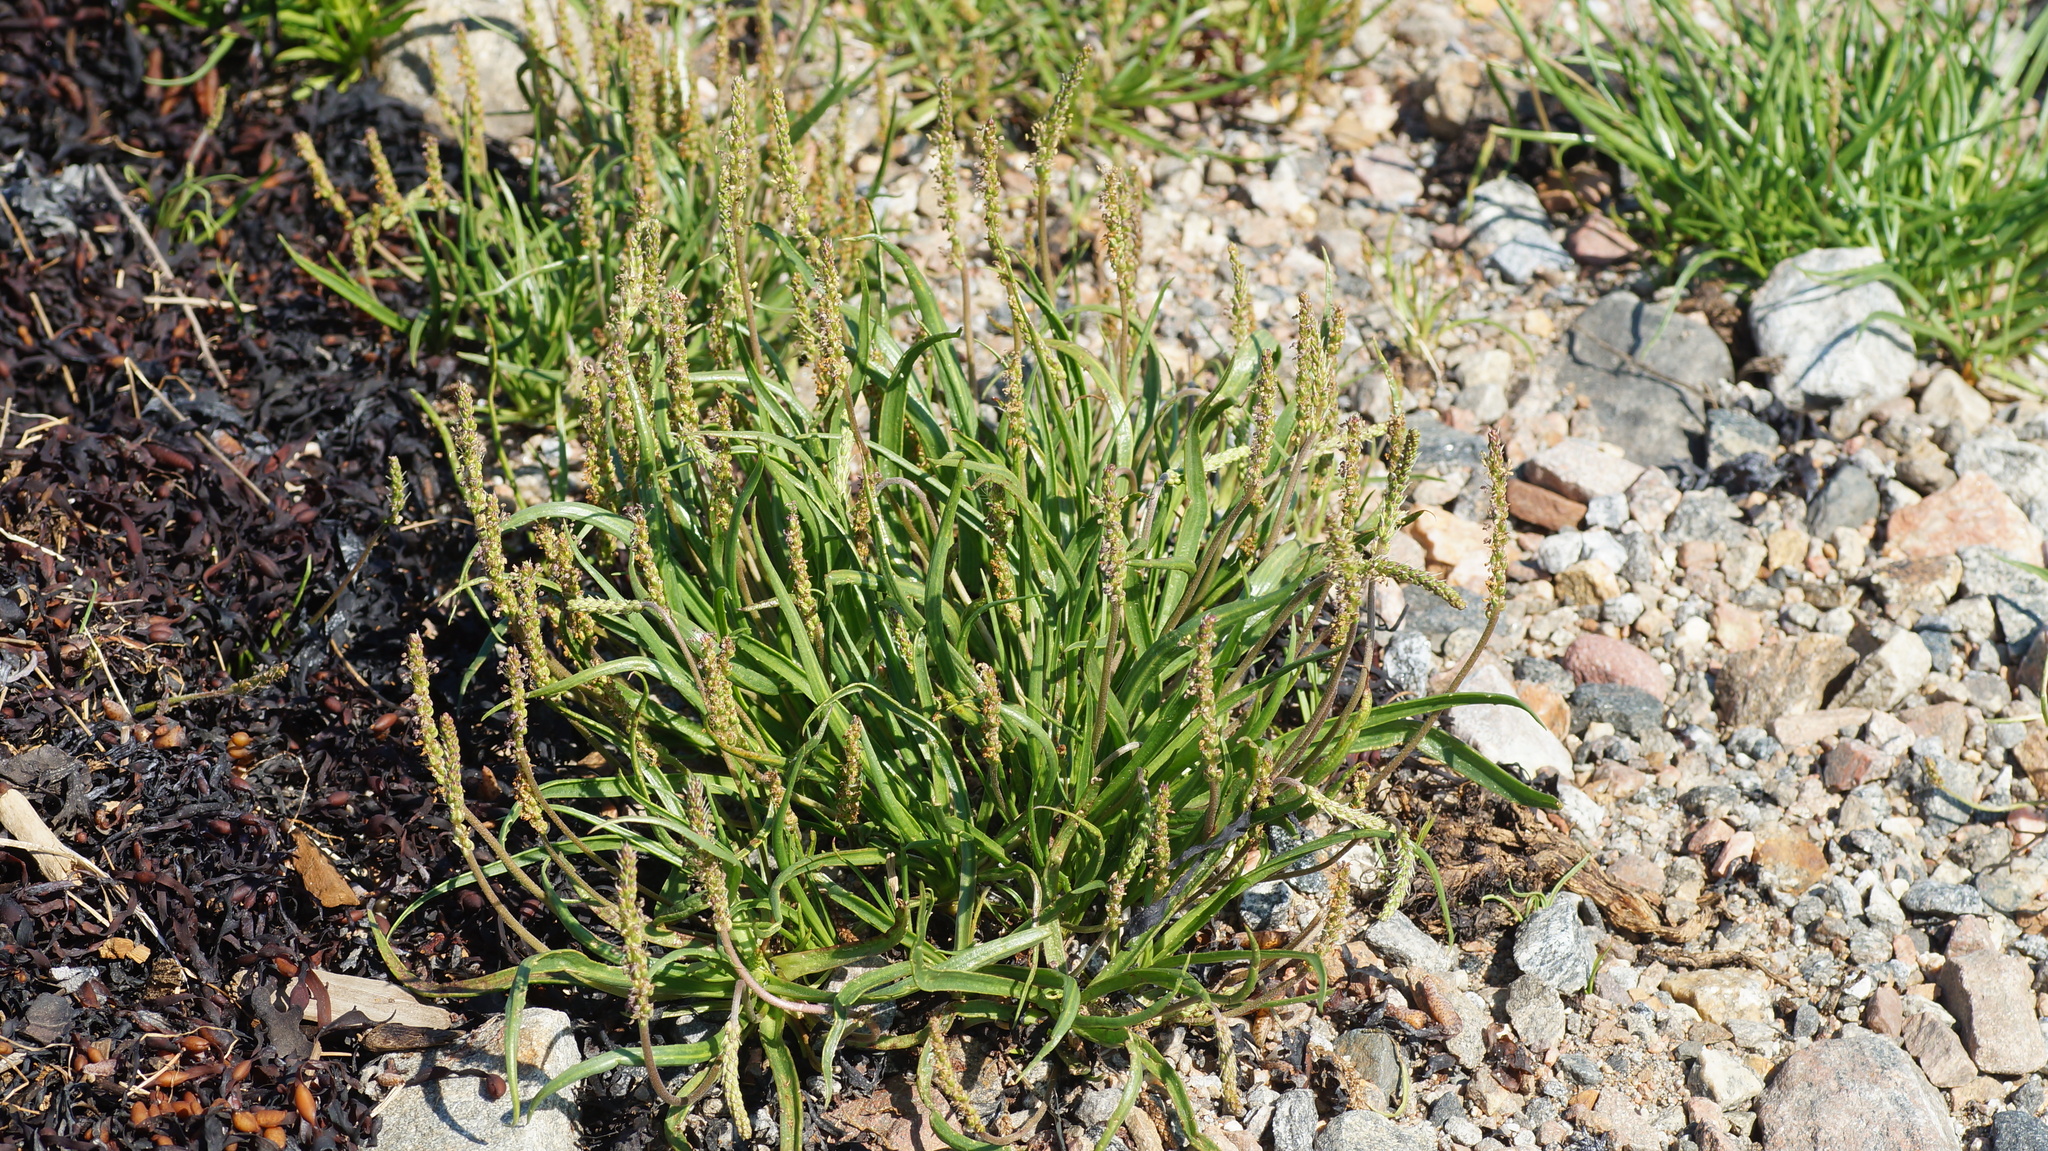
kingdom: Plantae
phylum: Tracheophyta
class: Magnoliopsida
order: Lamiales
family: Plantaginaceae
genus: Plantago
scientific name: Plantago maritima
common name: Sea plantain
